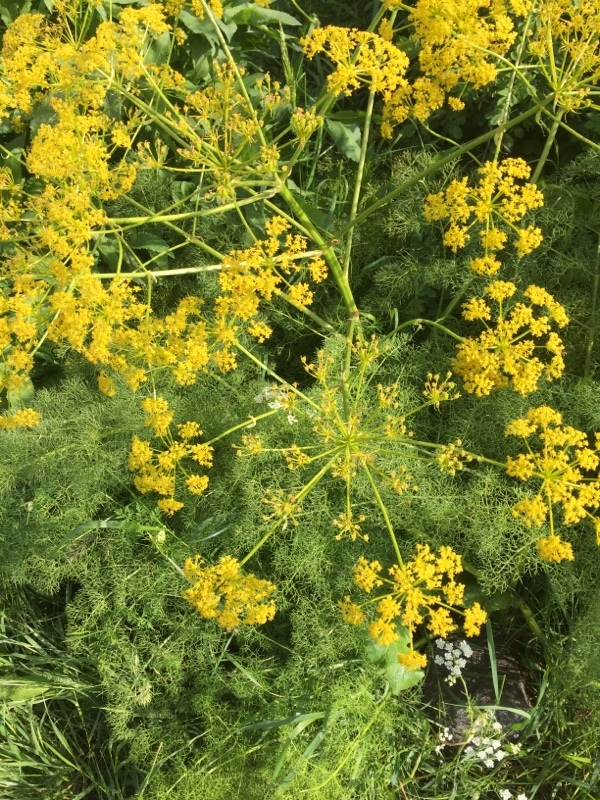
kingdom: Plantae
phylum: Tracheophyta
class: Magnoliopsida
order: Apiales
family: Apiaceae
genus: Prangos
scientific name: Prangos ferulacea
